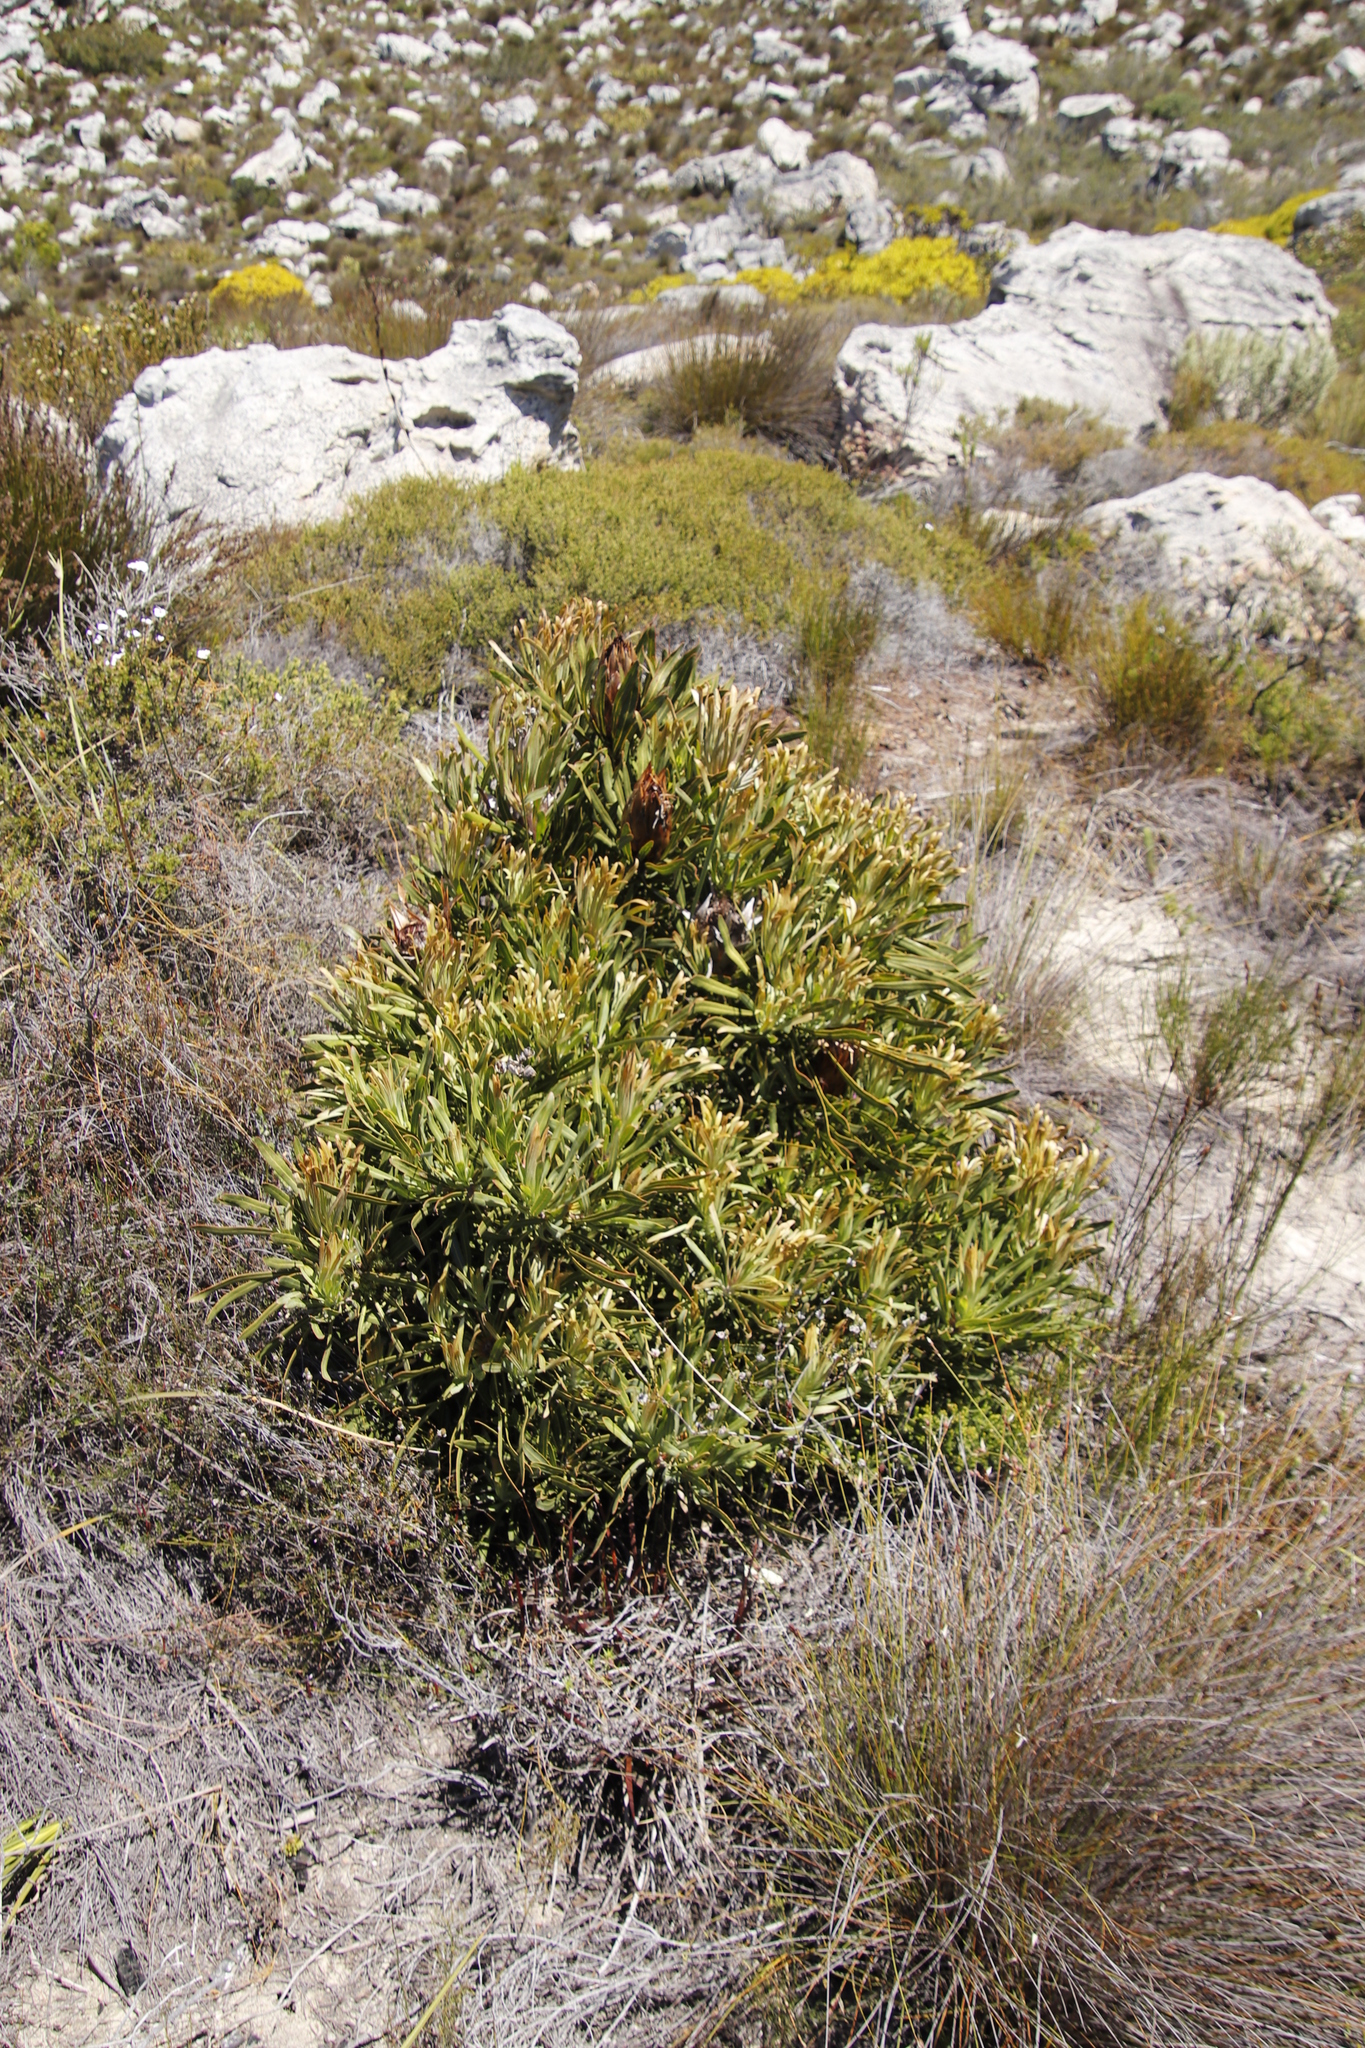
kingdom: Plantae
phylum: Tracheophyta
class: Magnoliopsida
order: Proteales
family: Proteaceae
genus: Protea
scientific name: Protea longifolia
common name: Long-leaf sugarbush
